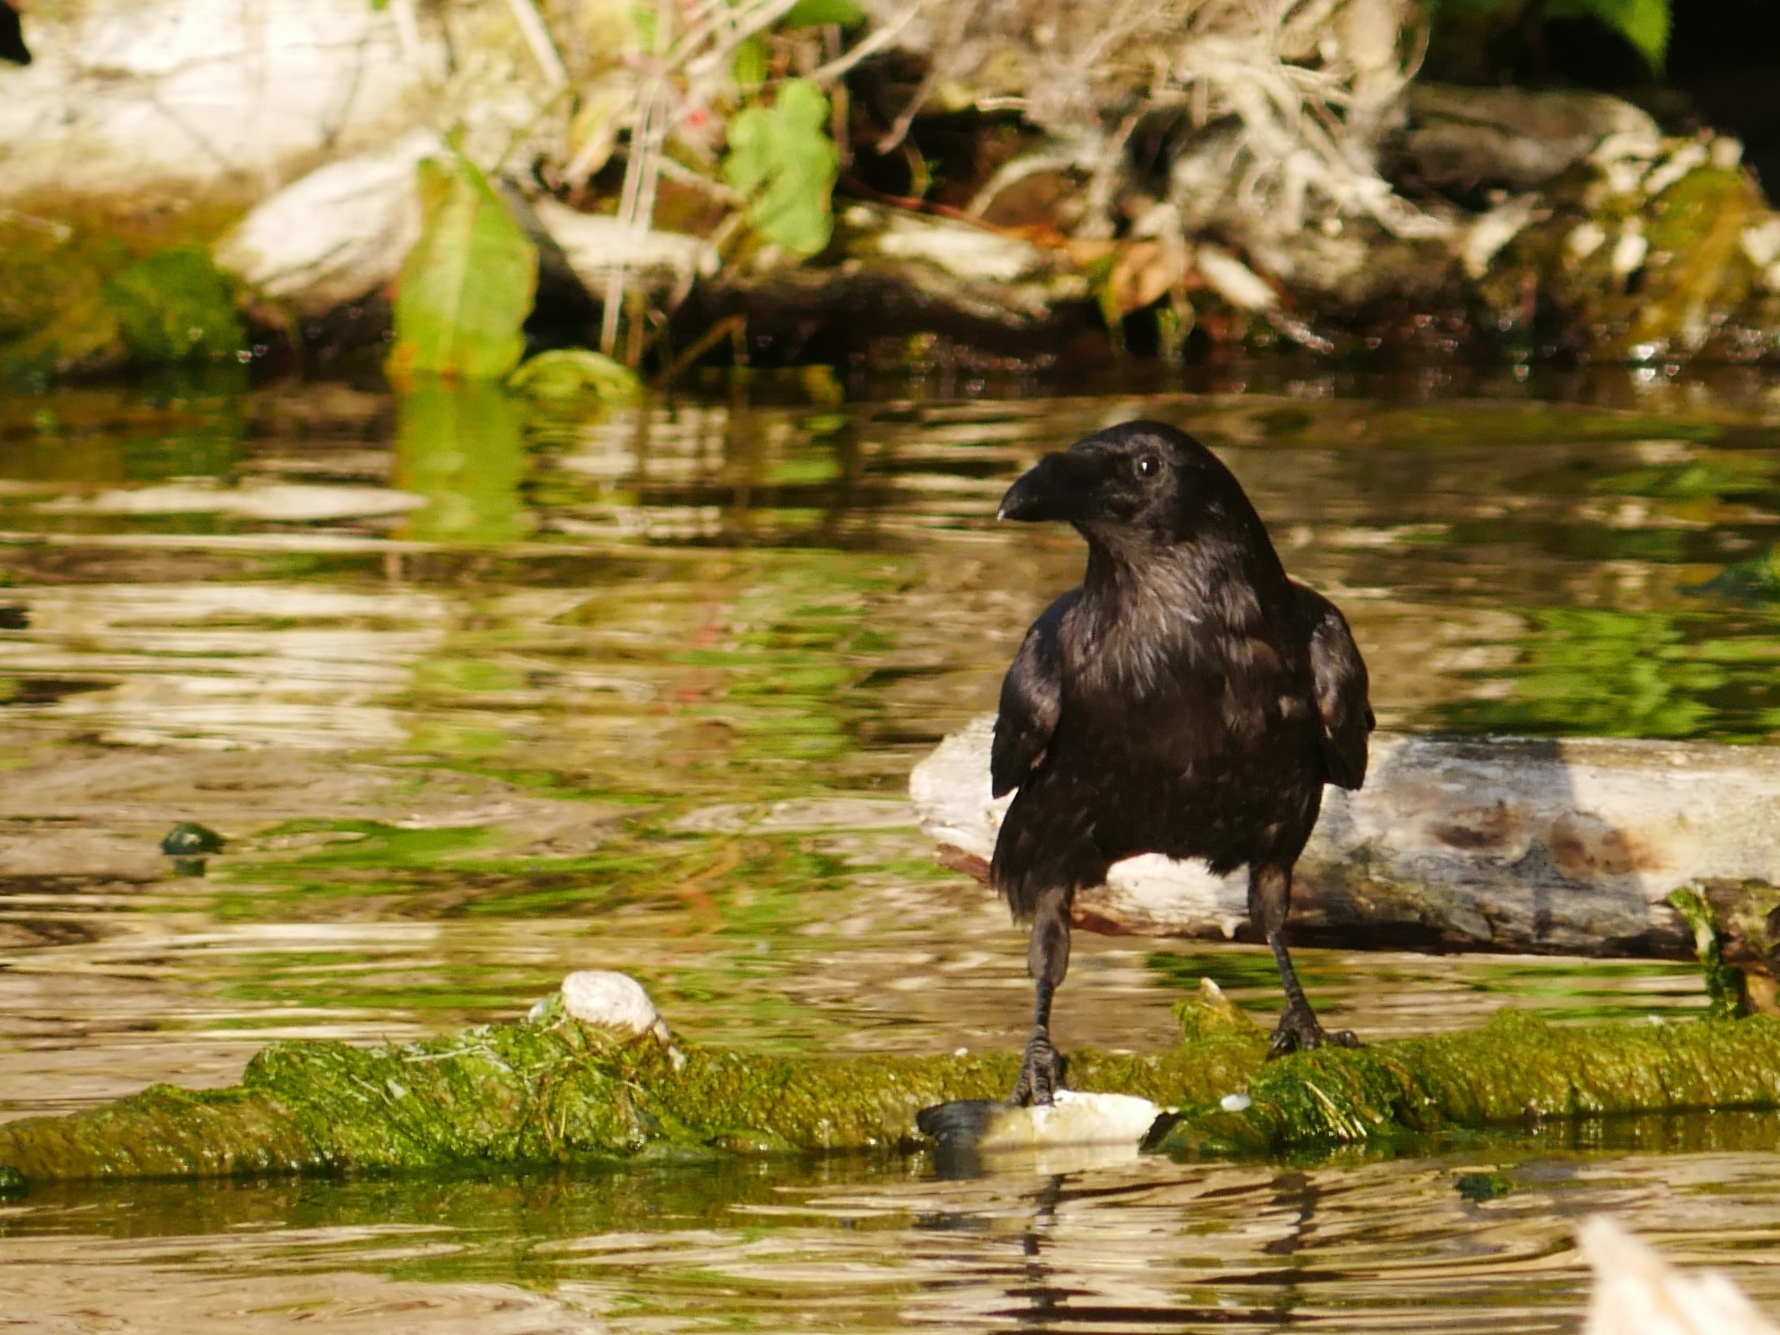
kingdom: Animalia
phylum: Chordata
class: Aves
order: Passeriformes
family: Corvidae
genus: Corvus
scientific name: Corvus corax
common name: Common raven
